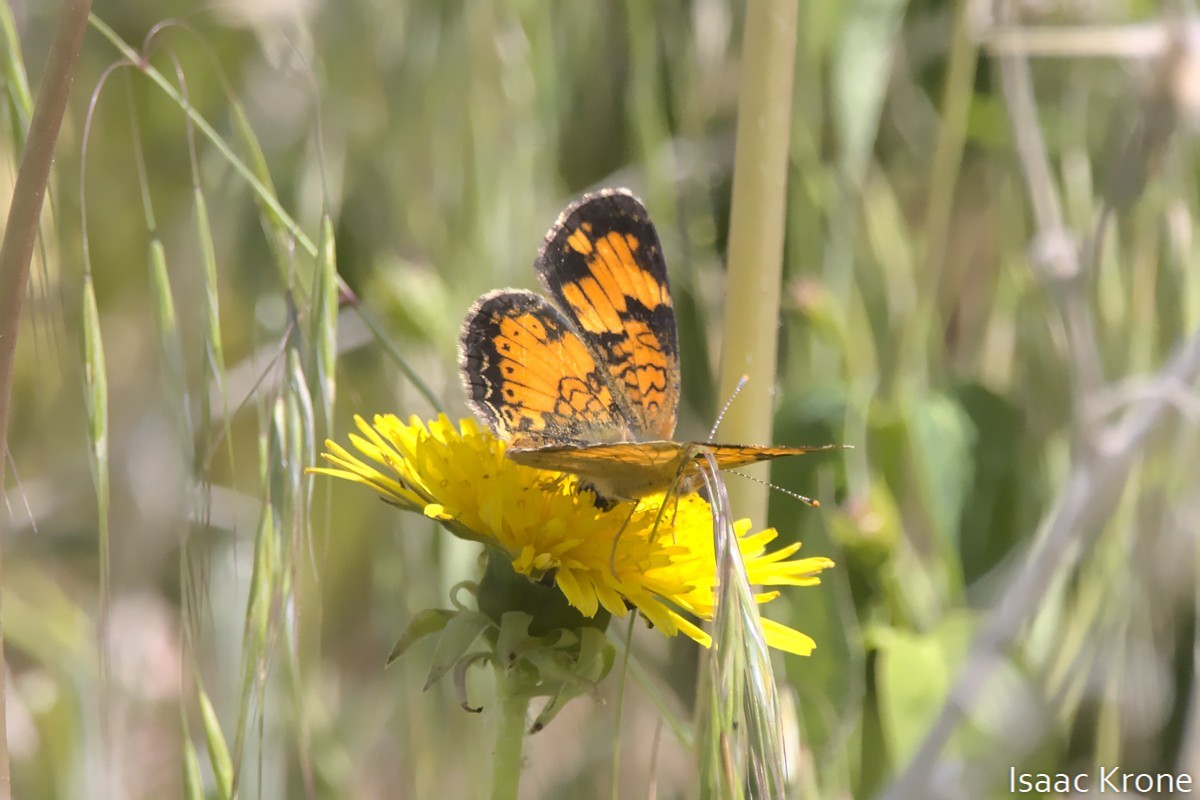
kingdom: Animalia
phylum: Arthropoda
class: Insecta
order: Lepidoptera
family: Nymphalidae
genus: Phyciodes
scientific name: Phyciodes tharos
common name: Pearl crescent
